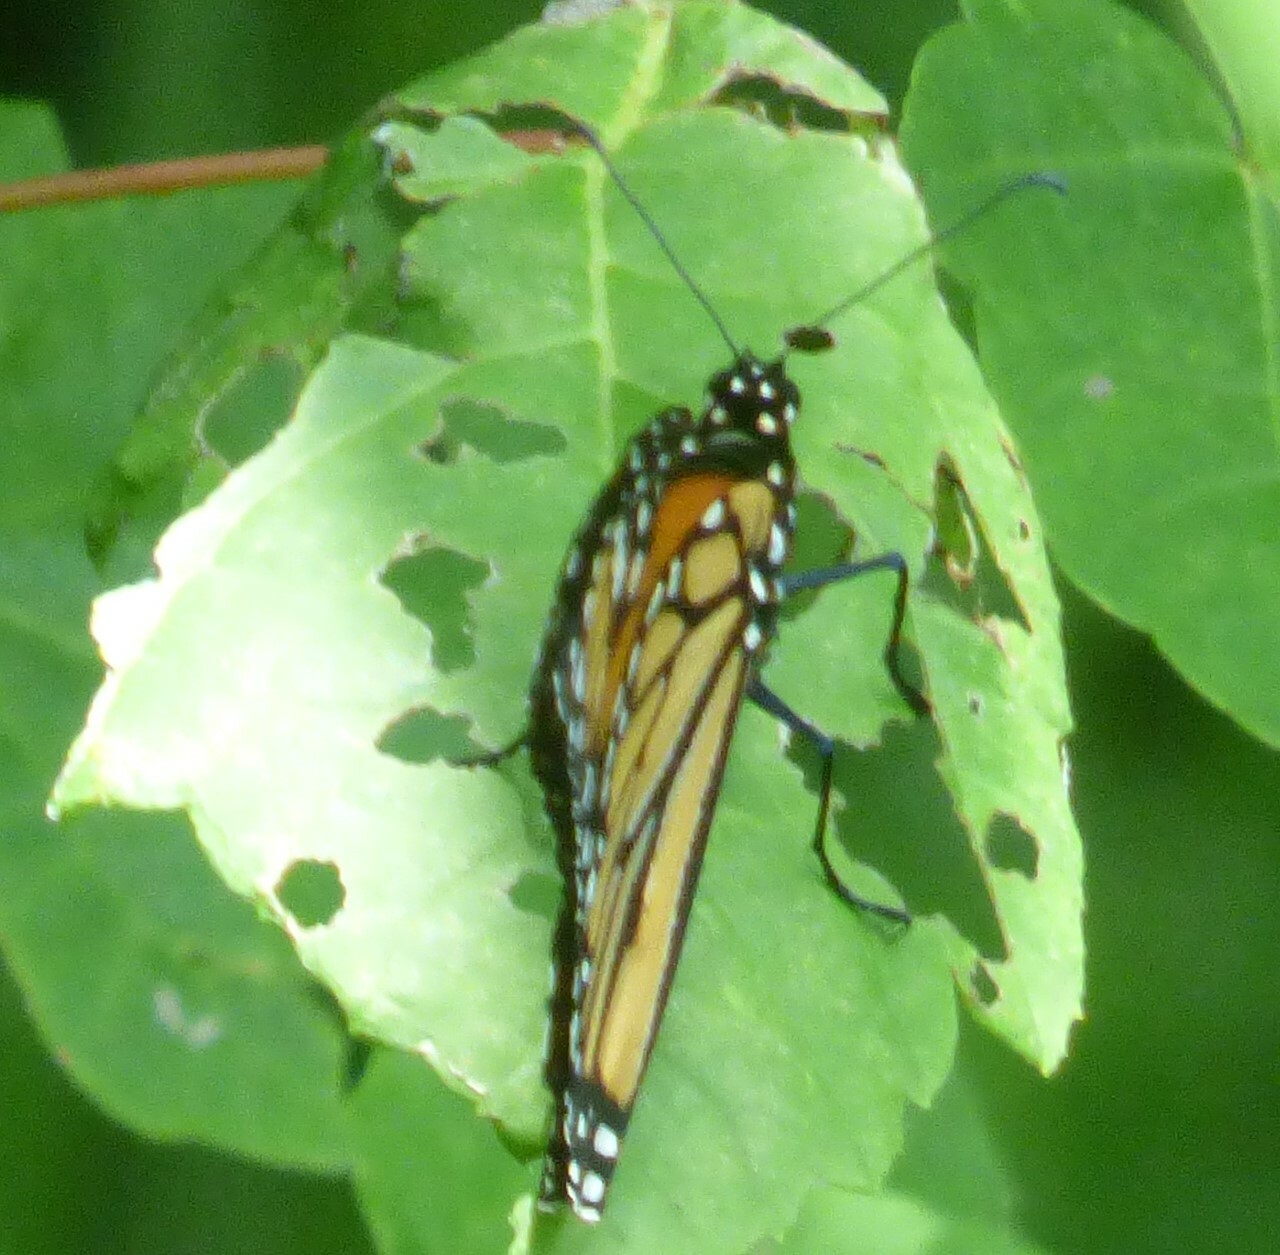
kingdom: Animalia
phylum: Arthropoda
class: Insecta
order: Lepidoptera
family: Nymphalidae
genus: Danaus
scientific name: Danaus plexippus
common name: Monarch
